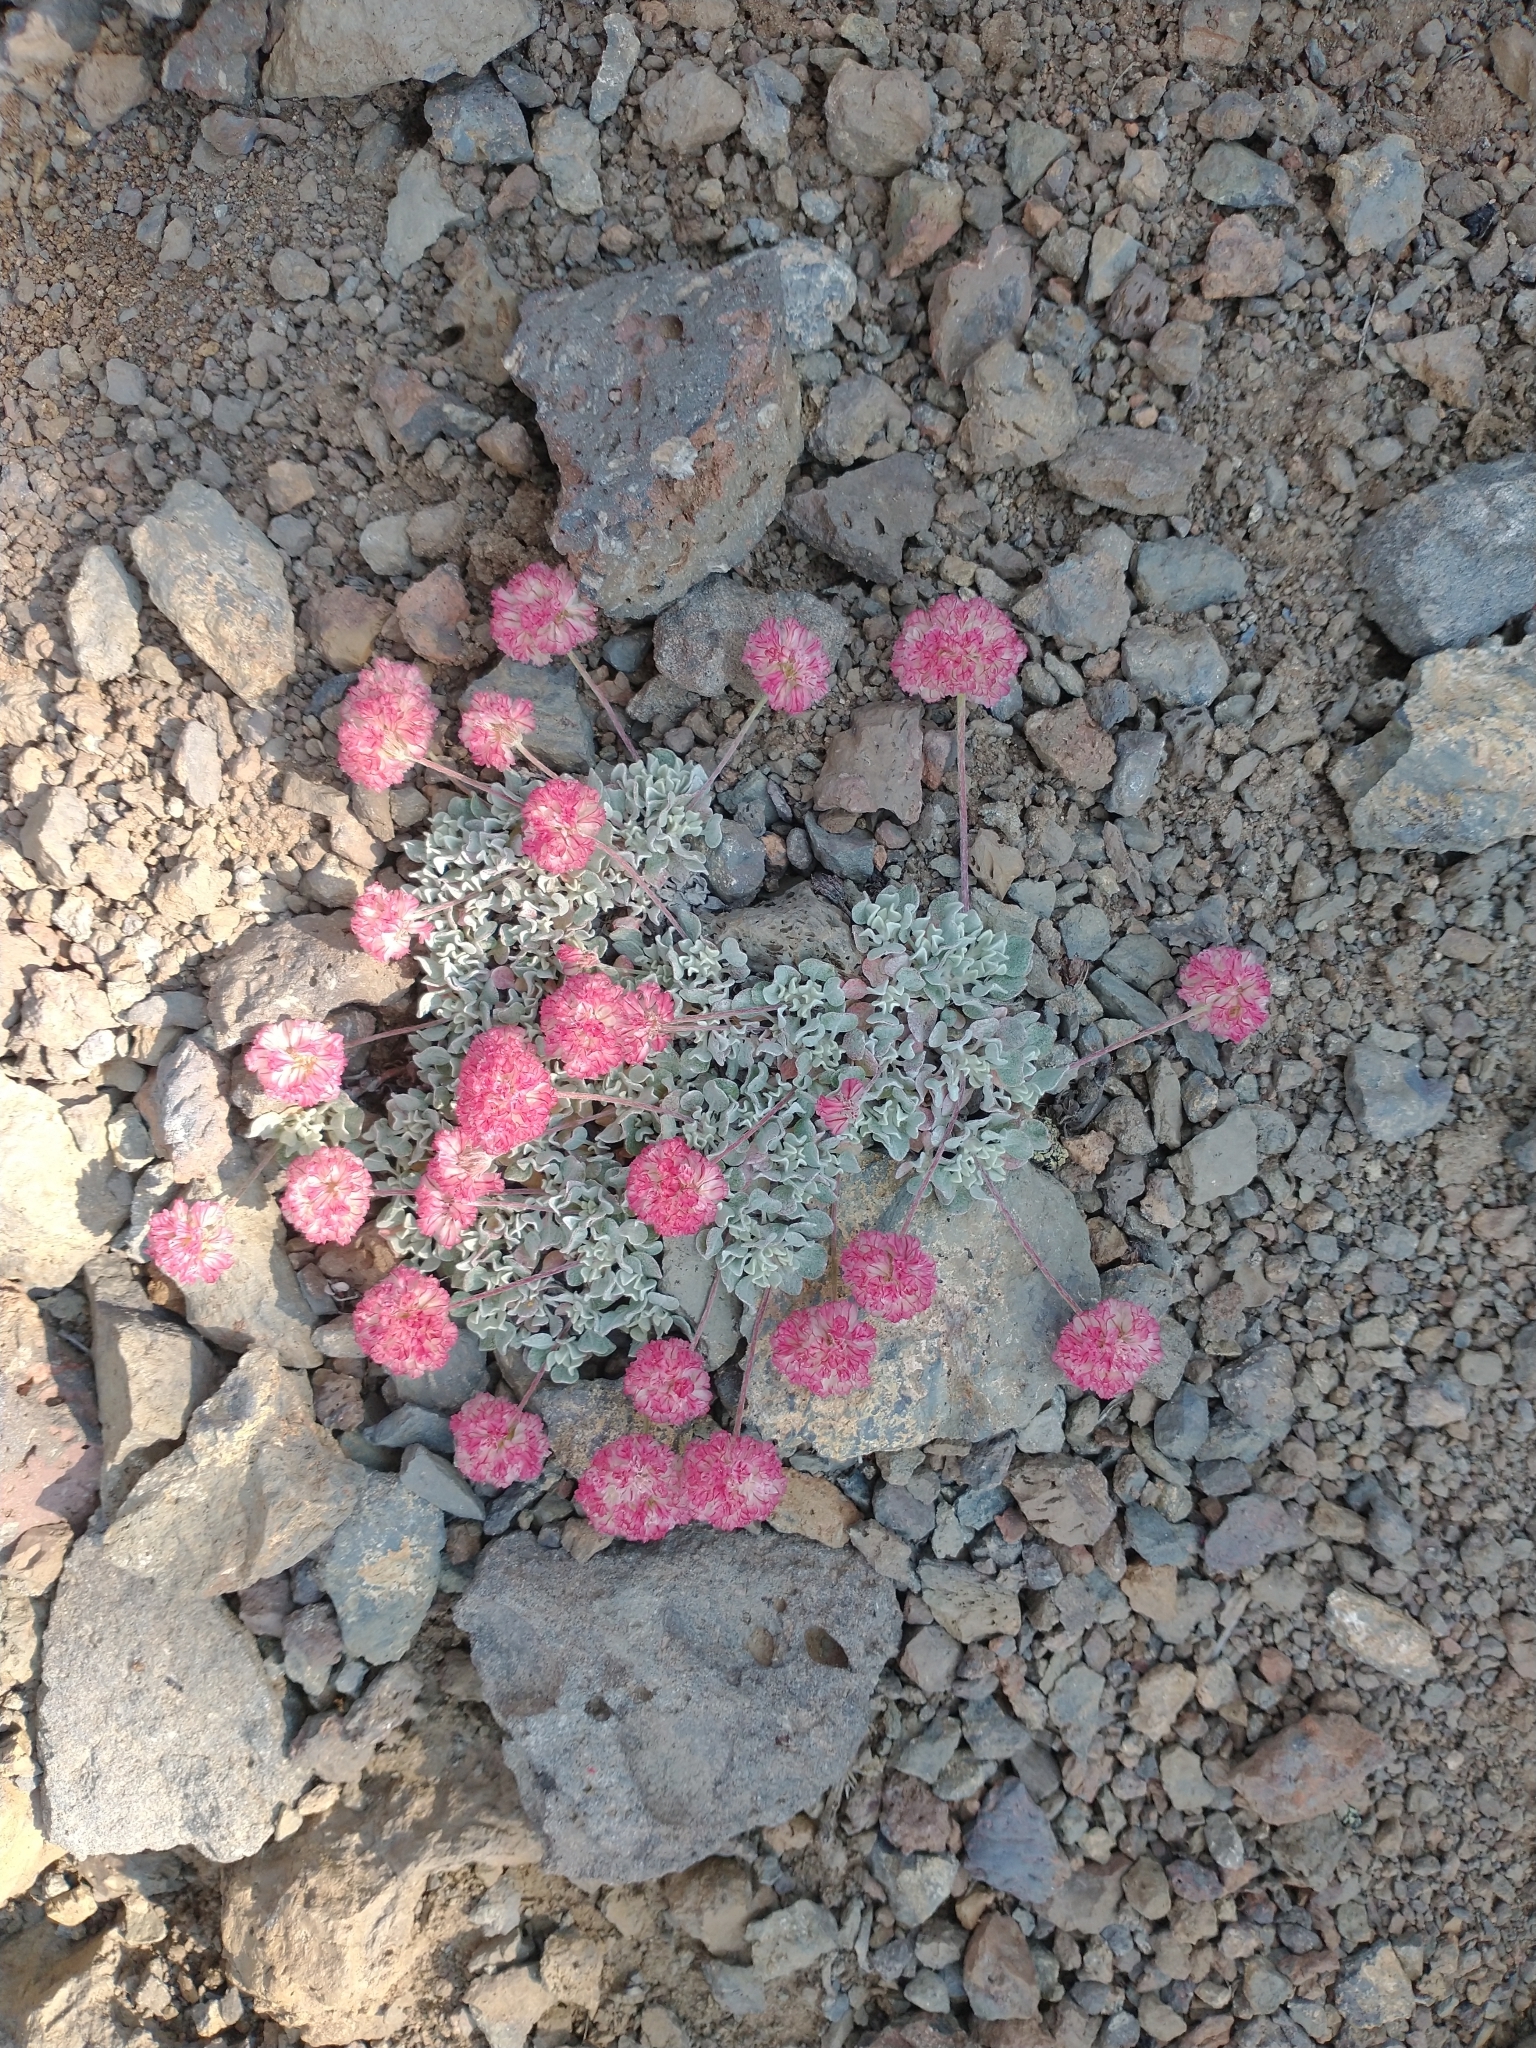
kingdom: Plantae
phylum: Tracheophyta
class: Magnoliopsida
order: Caryophyllales
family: Polygonaceae
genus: Eriogonum
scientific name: Eriogonum ovalifolium
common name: Cushion buckwheat
